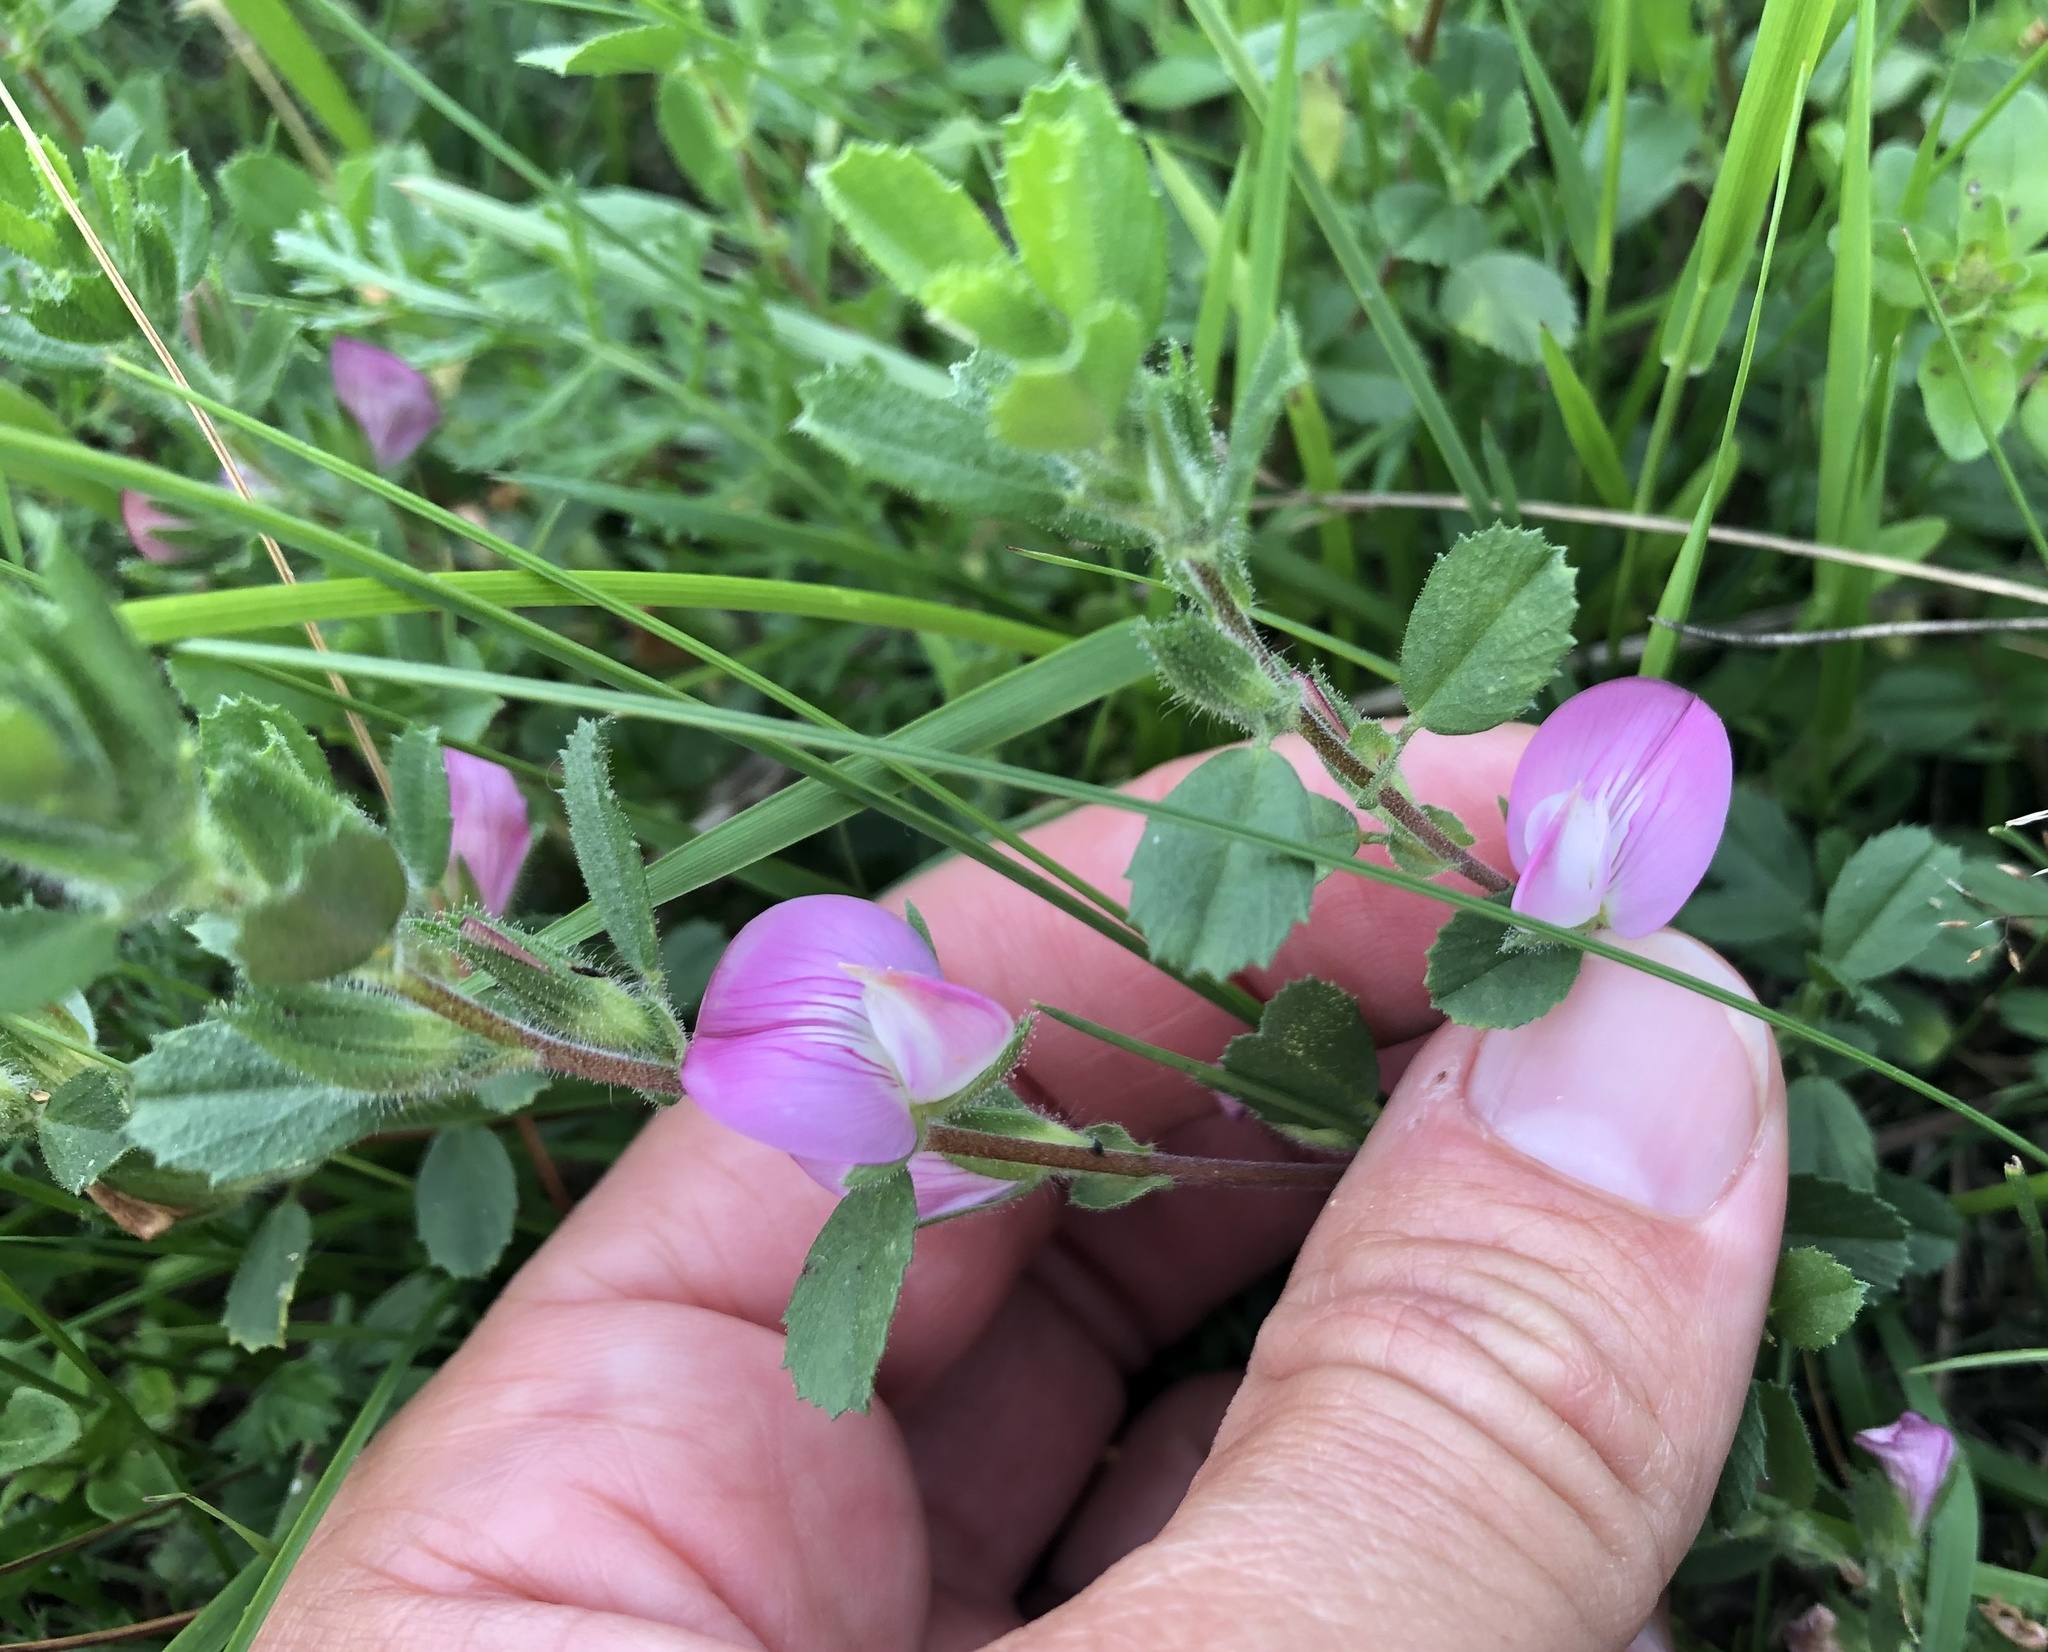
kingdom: Plantae
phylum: Tracheophyta
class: Magnoliopsida
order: Fabales
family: Fabaceae
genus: Ononis
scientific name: Ononis spinosa
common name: Spiny restharrow
